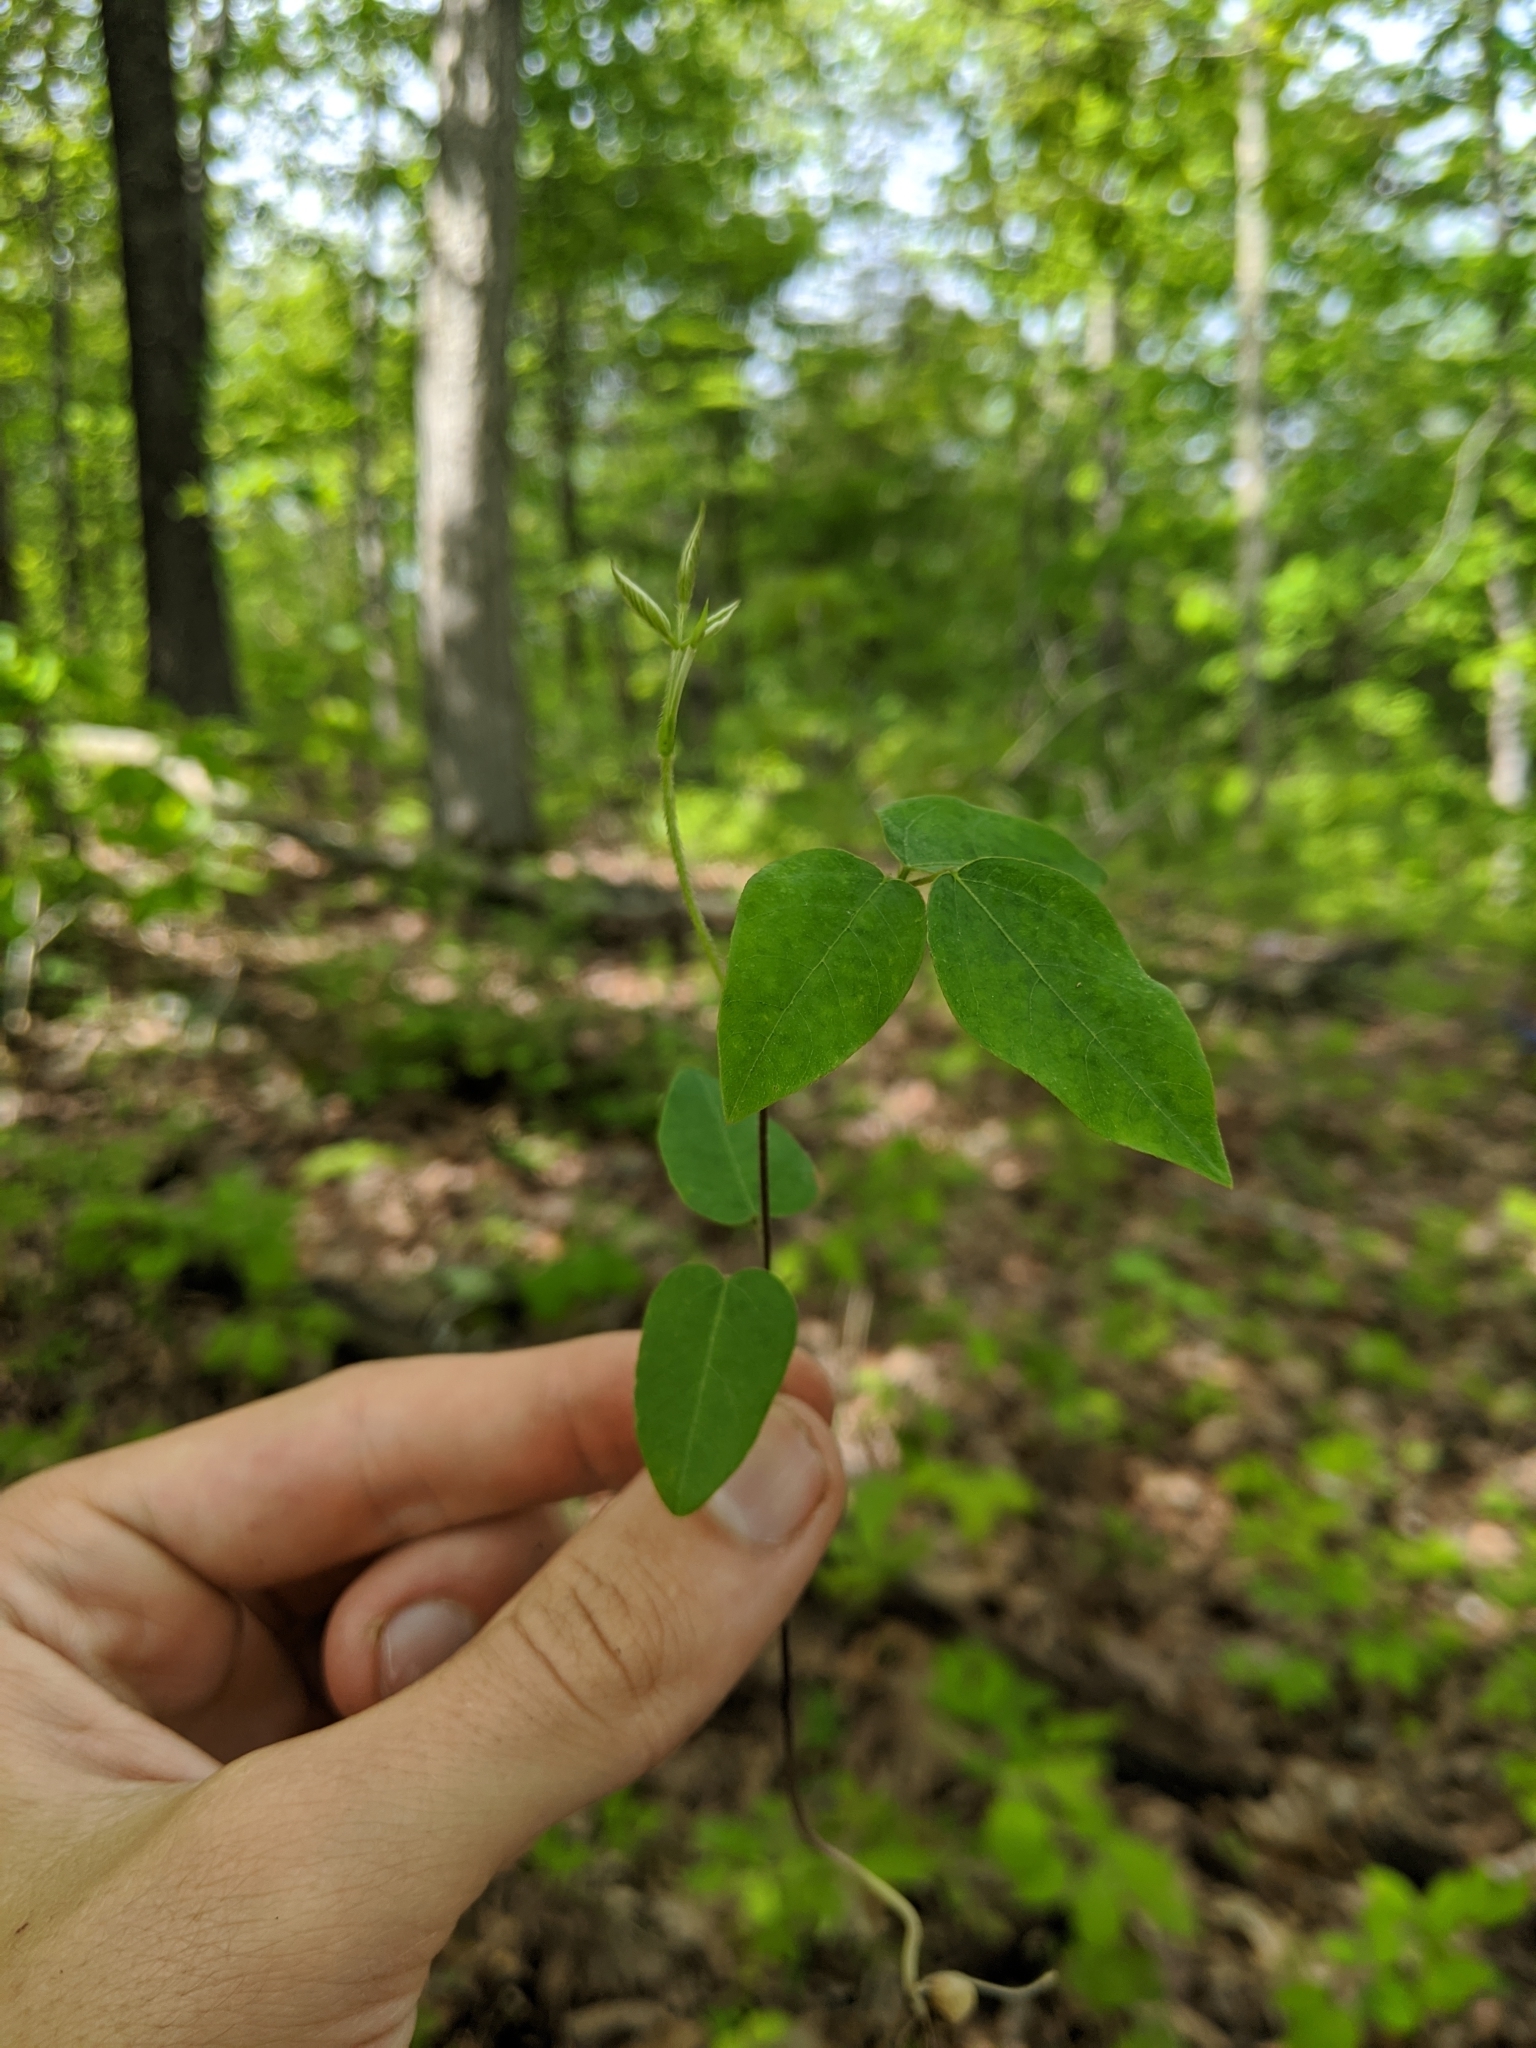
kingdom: Plantae
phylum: Tracheophyta
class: Magnoliopsida
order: Fabales
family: Fabaceae
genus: Amphicarpaea
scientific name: Amphicarpaea bracteata
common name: American hog peanut
